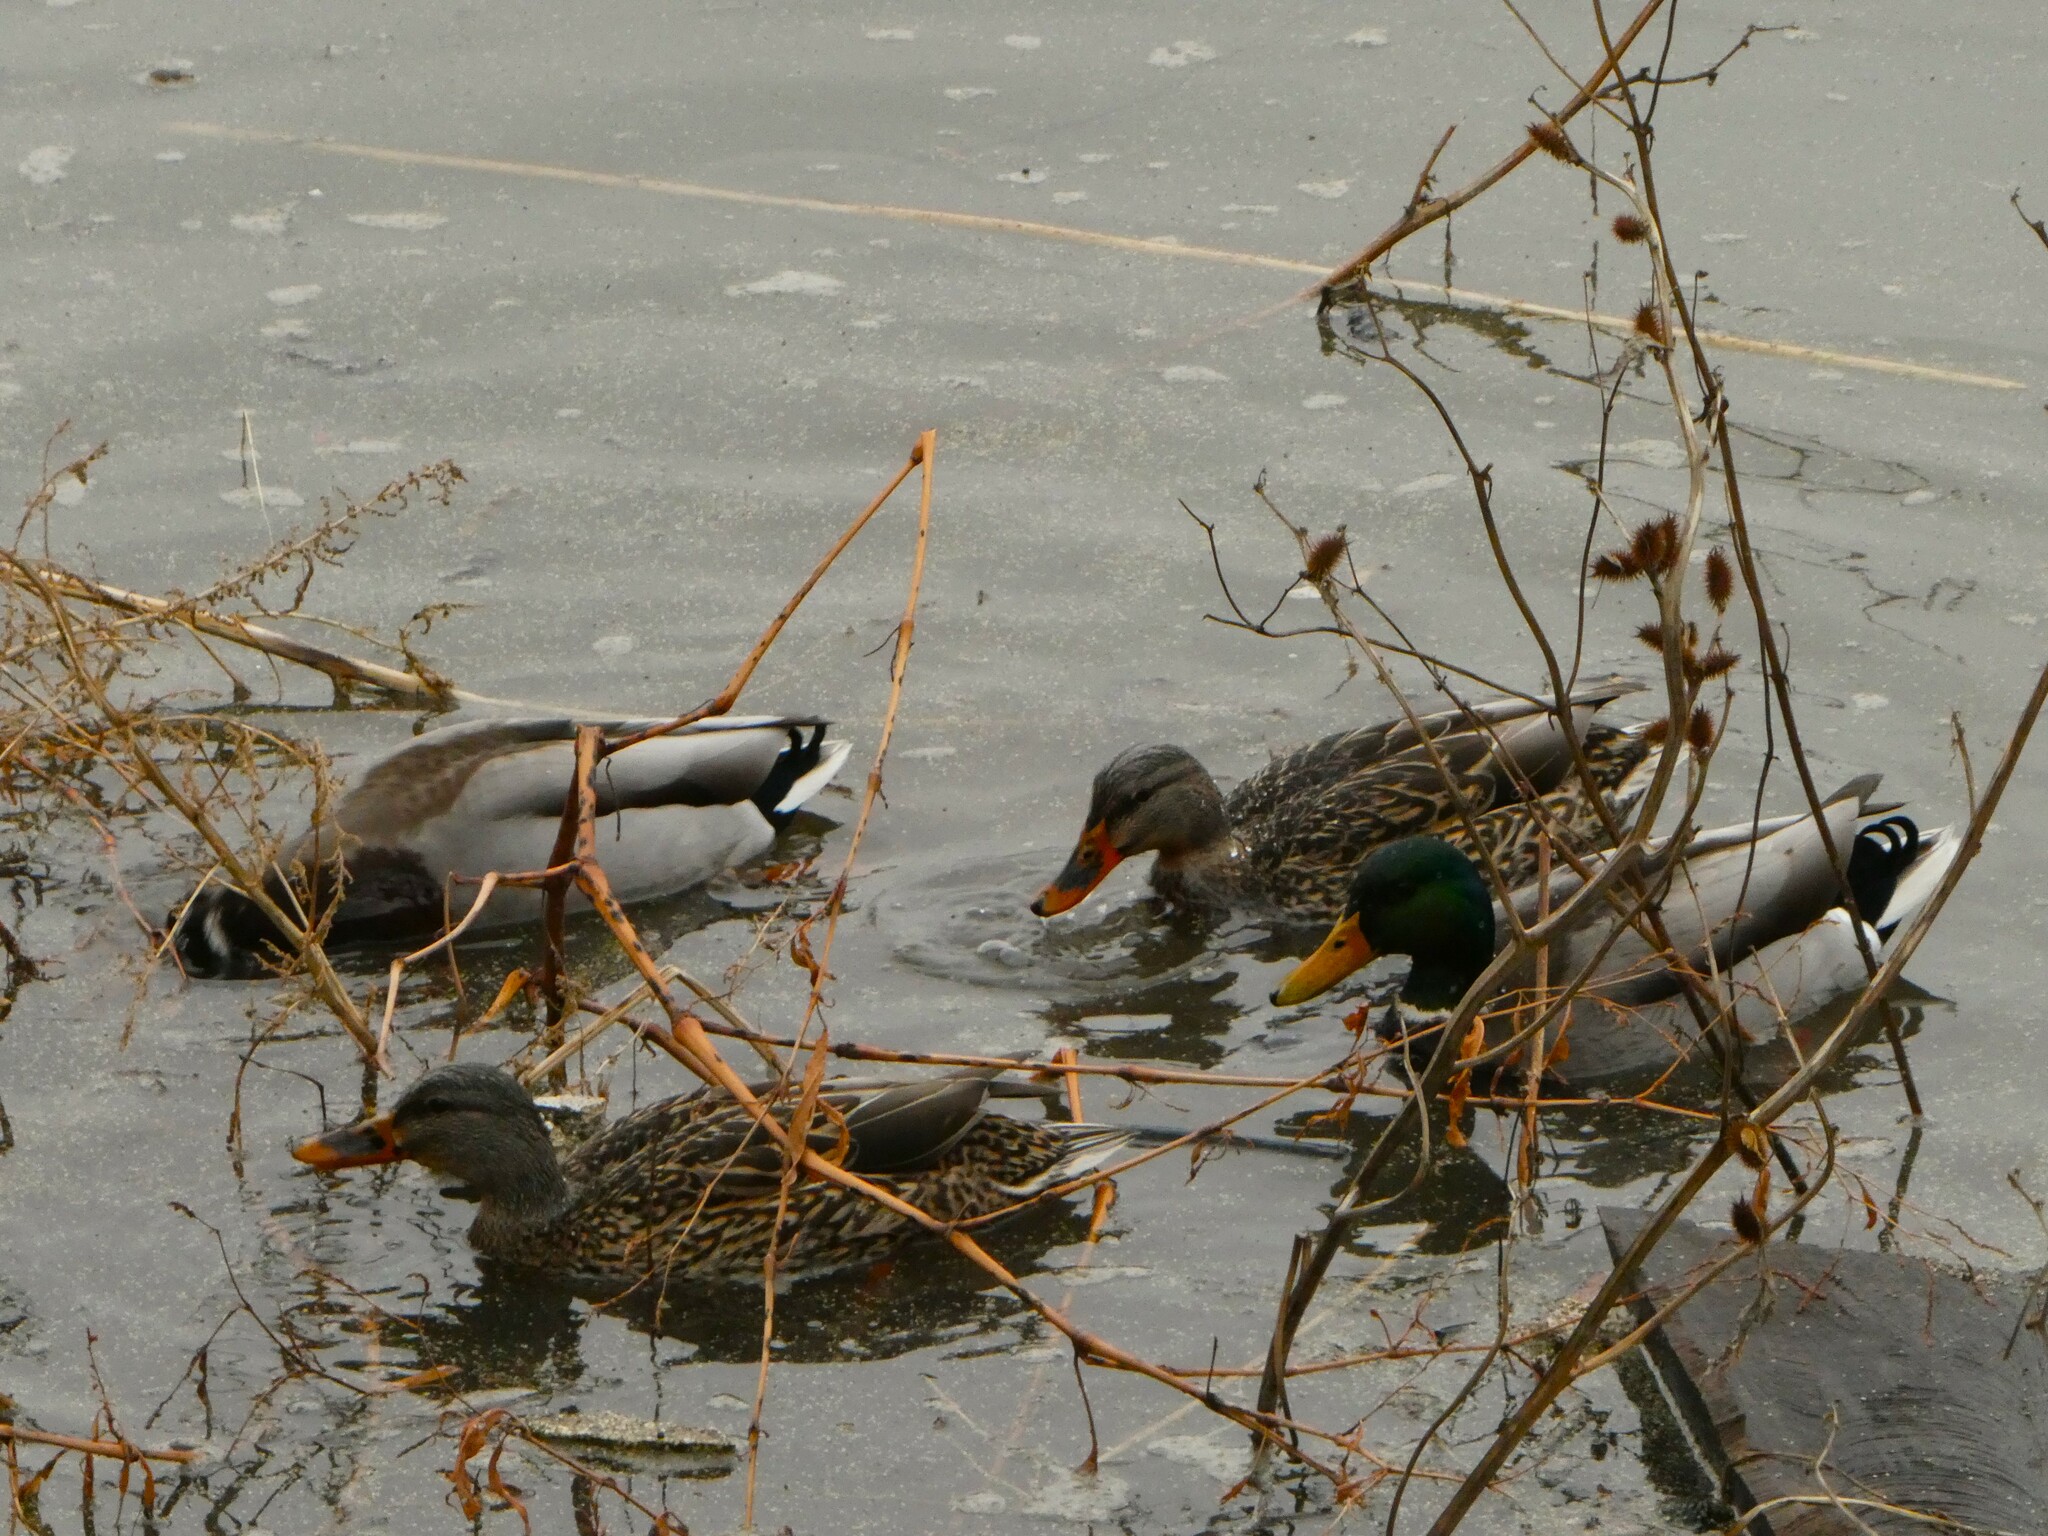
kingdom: Animalia
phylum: Chordata
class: Aves
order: Anseriformes
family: Anatidae
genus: Anas
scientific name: Anas platyrhynchos
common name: Mallard
